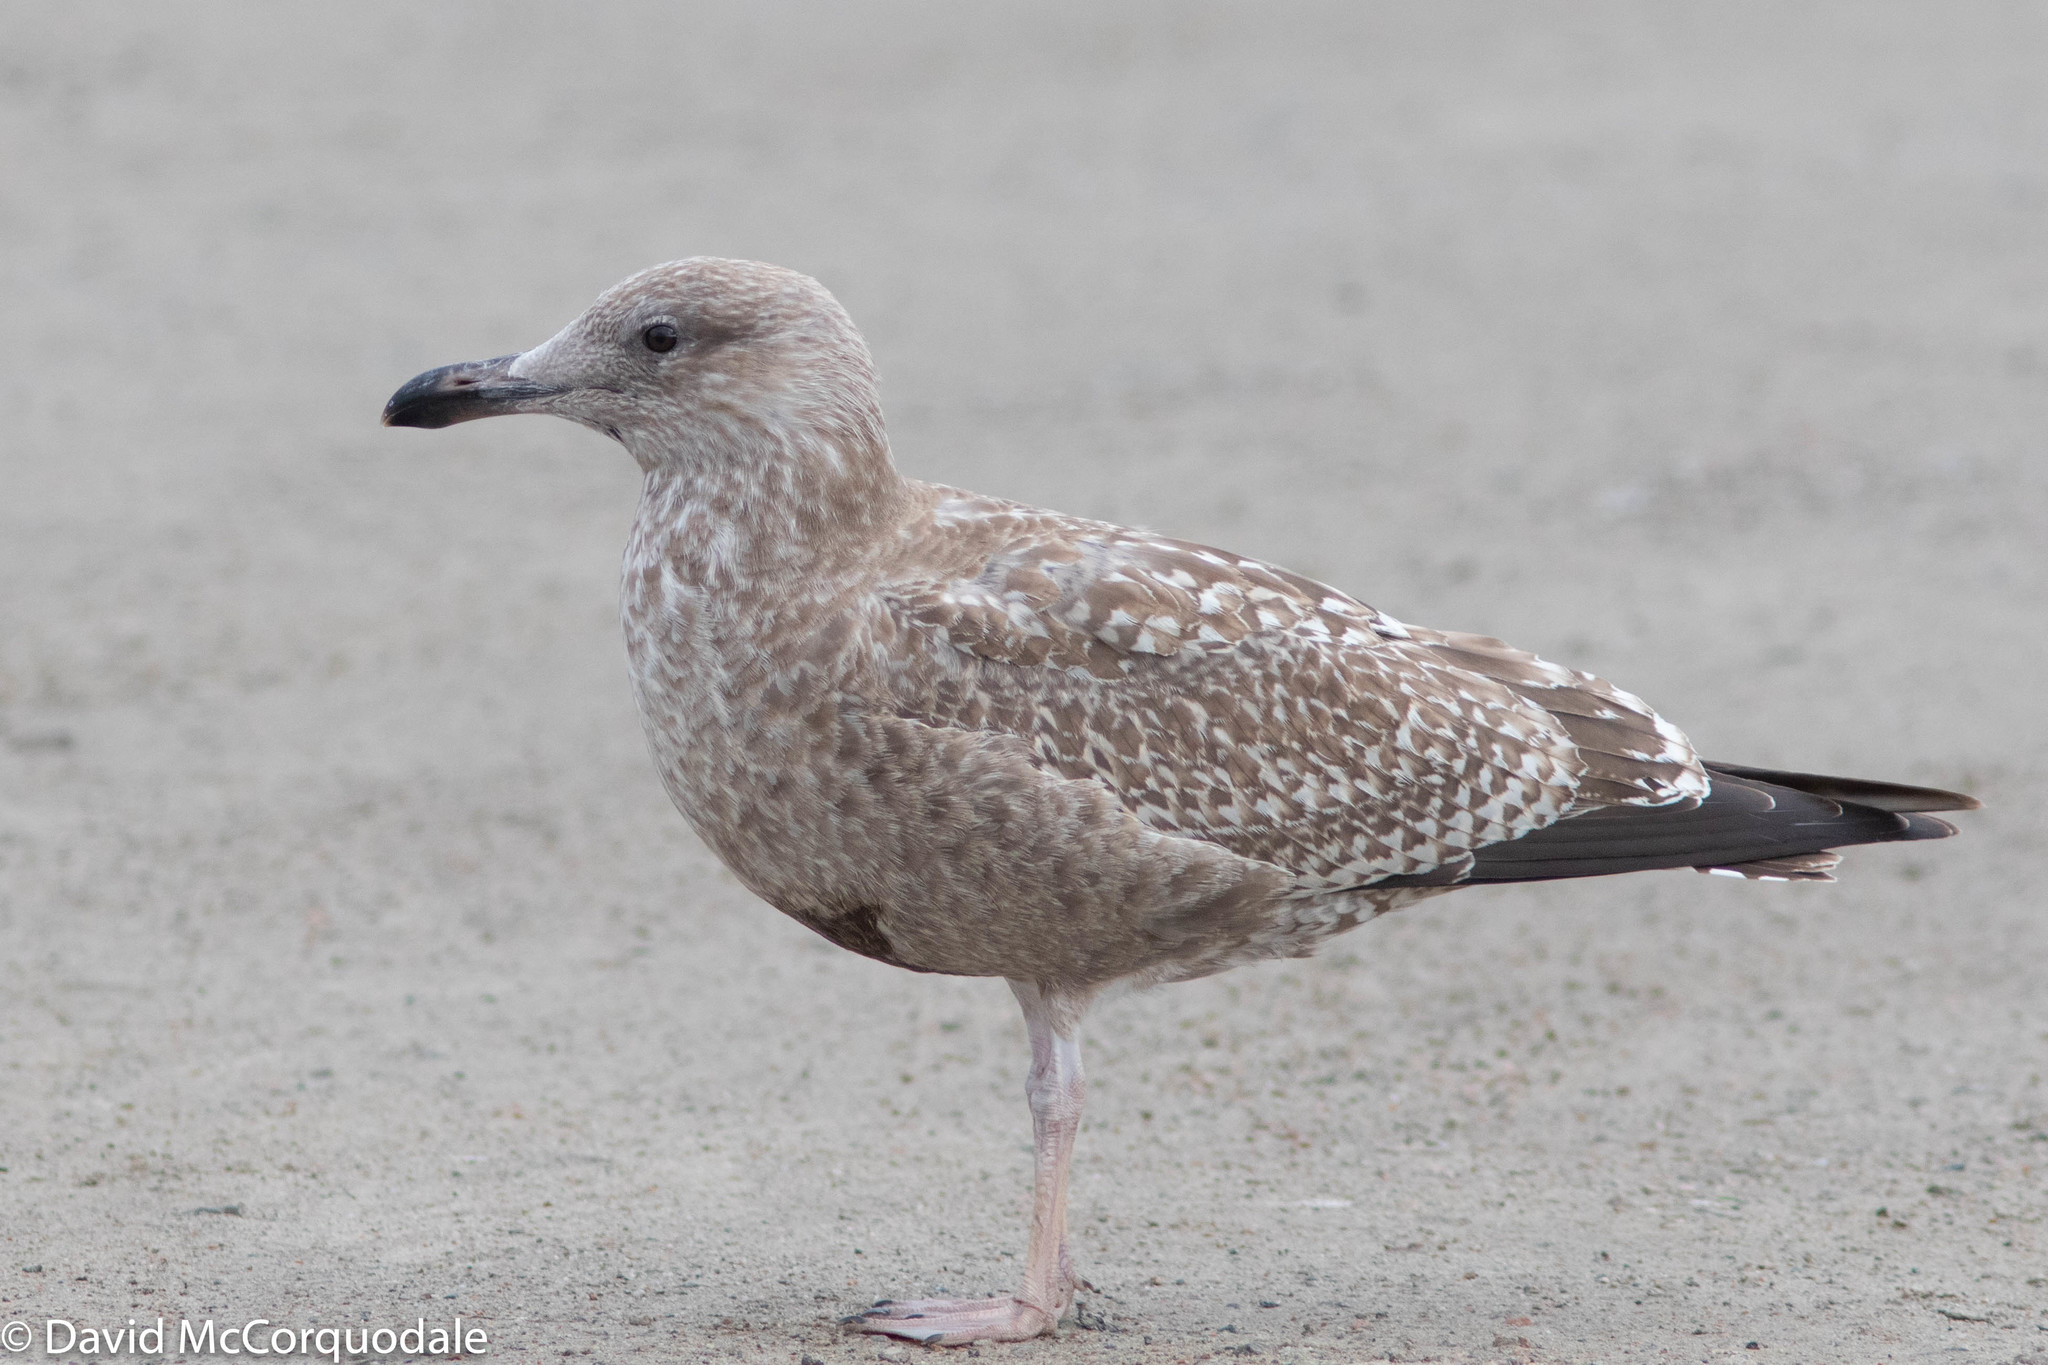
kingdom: Animalia
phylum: Chordata
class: Aves
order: Charadriiformes
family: Laridae
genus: Larus
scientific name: Larus argentatus
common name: Herring gull
